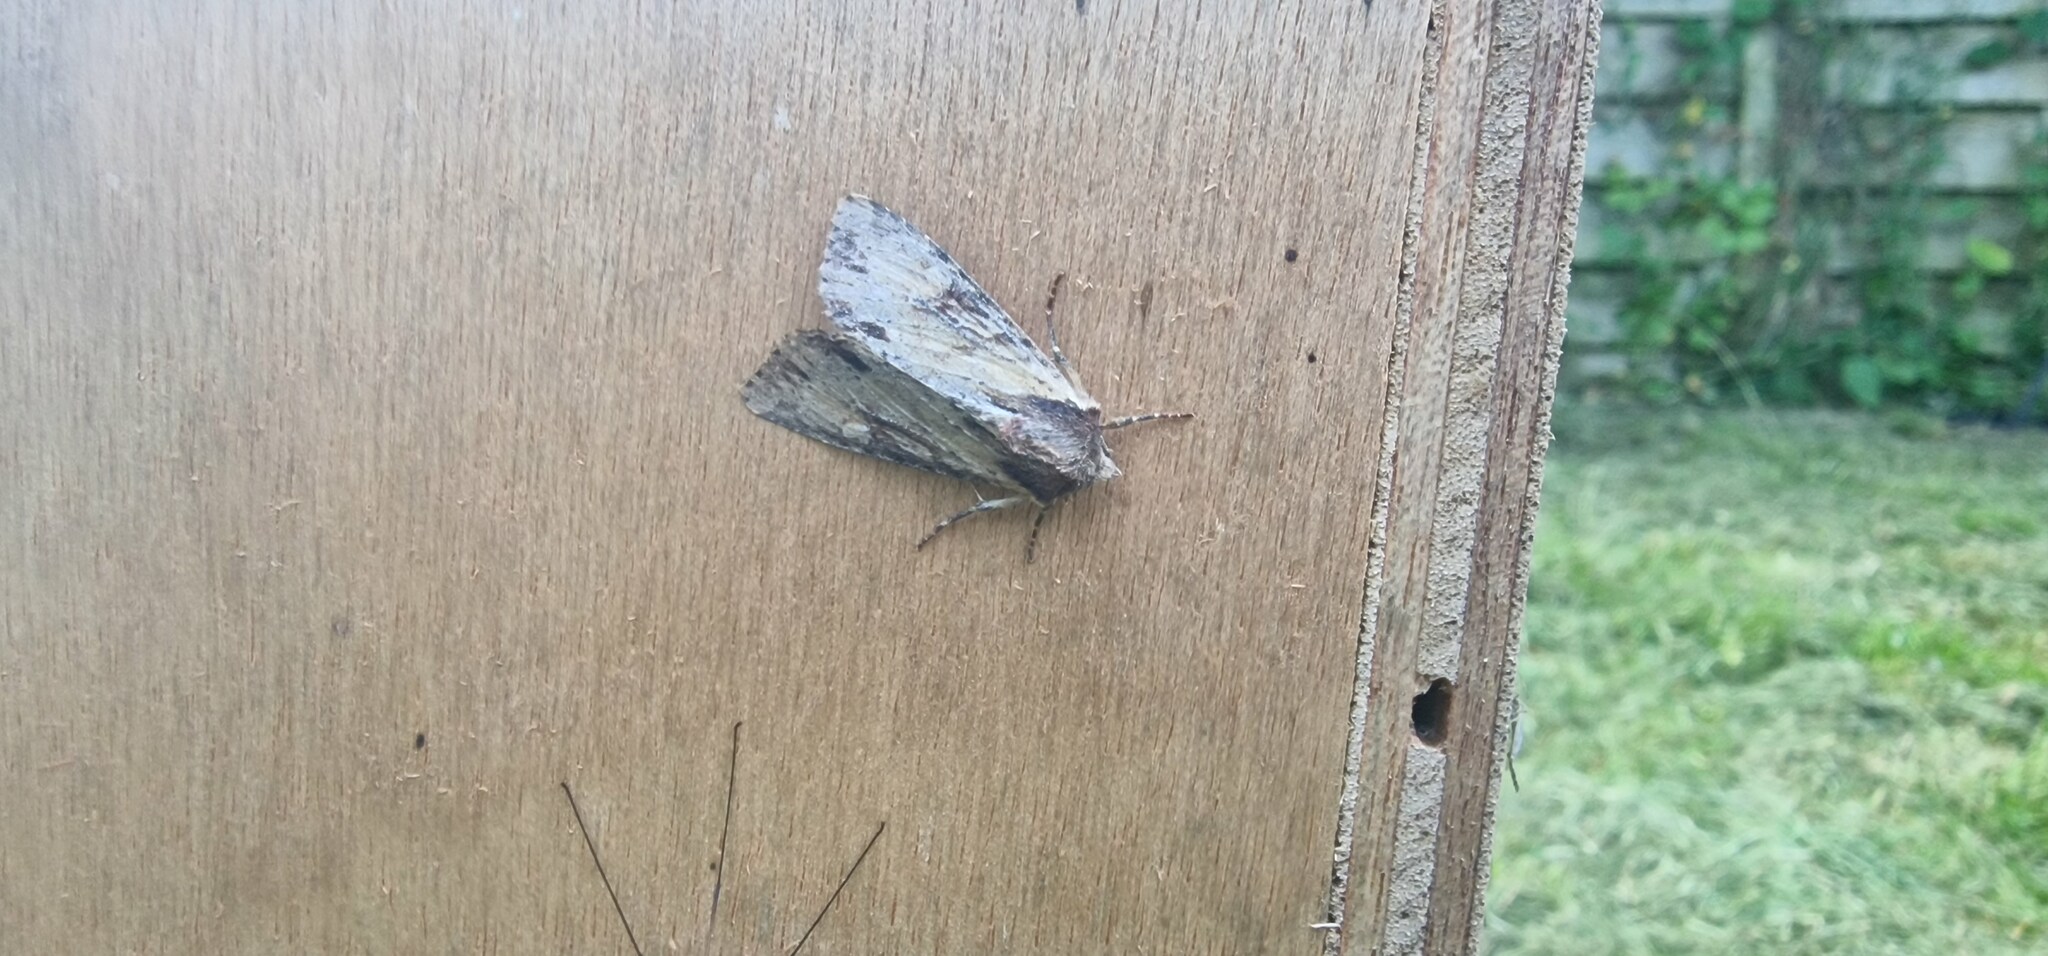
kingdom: Animalia
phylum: Arthropoda
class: Insecta
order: Lepidoptera
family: Noctuidae
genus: Apamea
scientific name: Apamea crenata
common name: Clouded-bordered brindle
